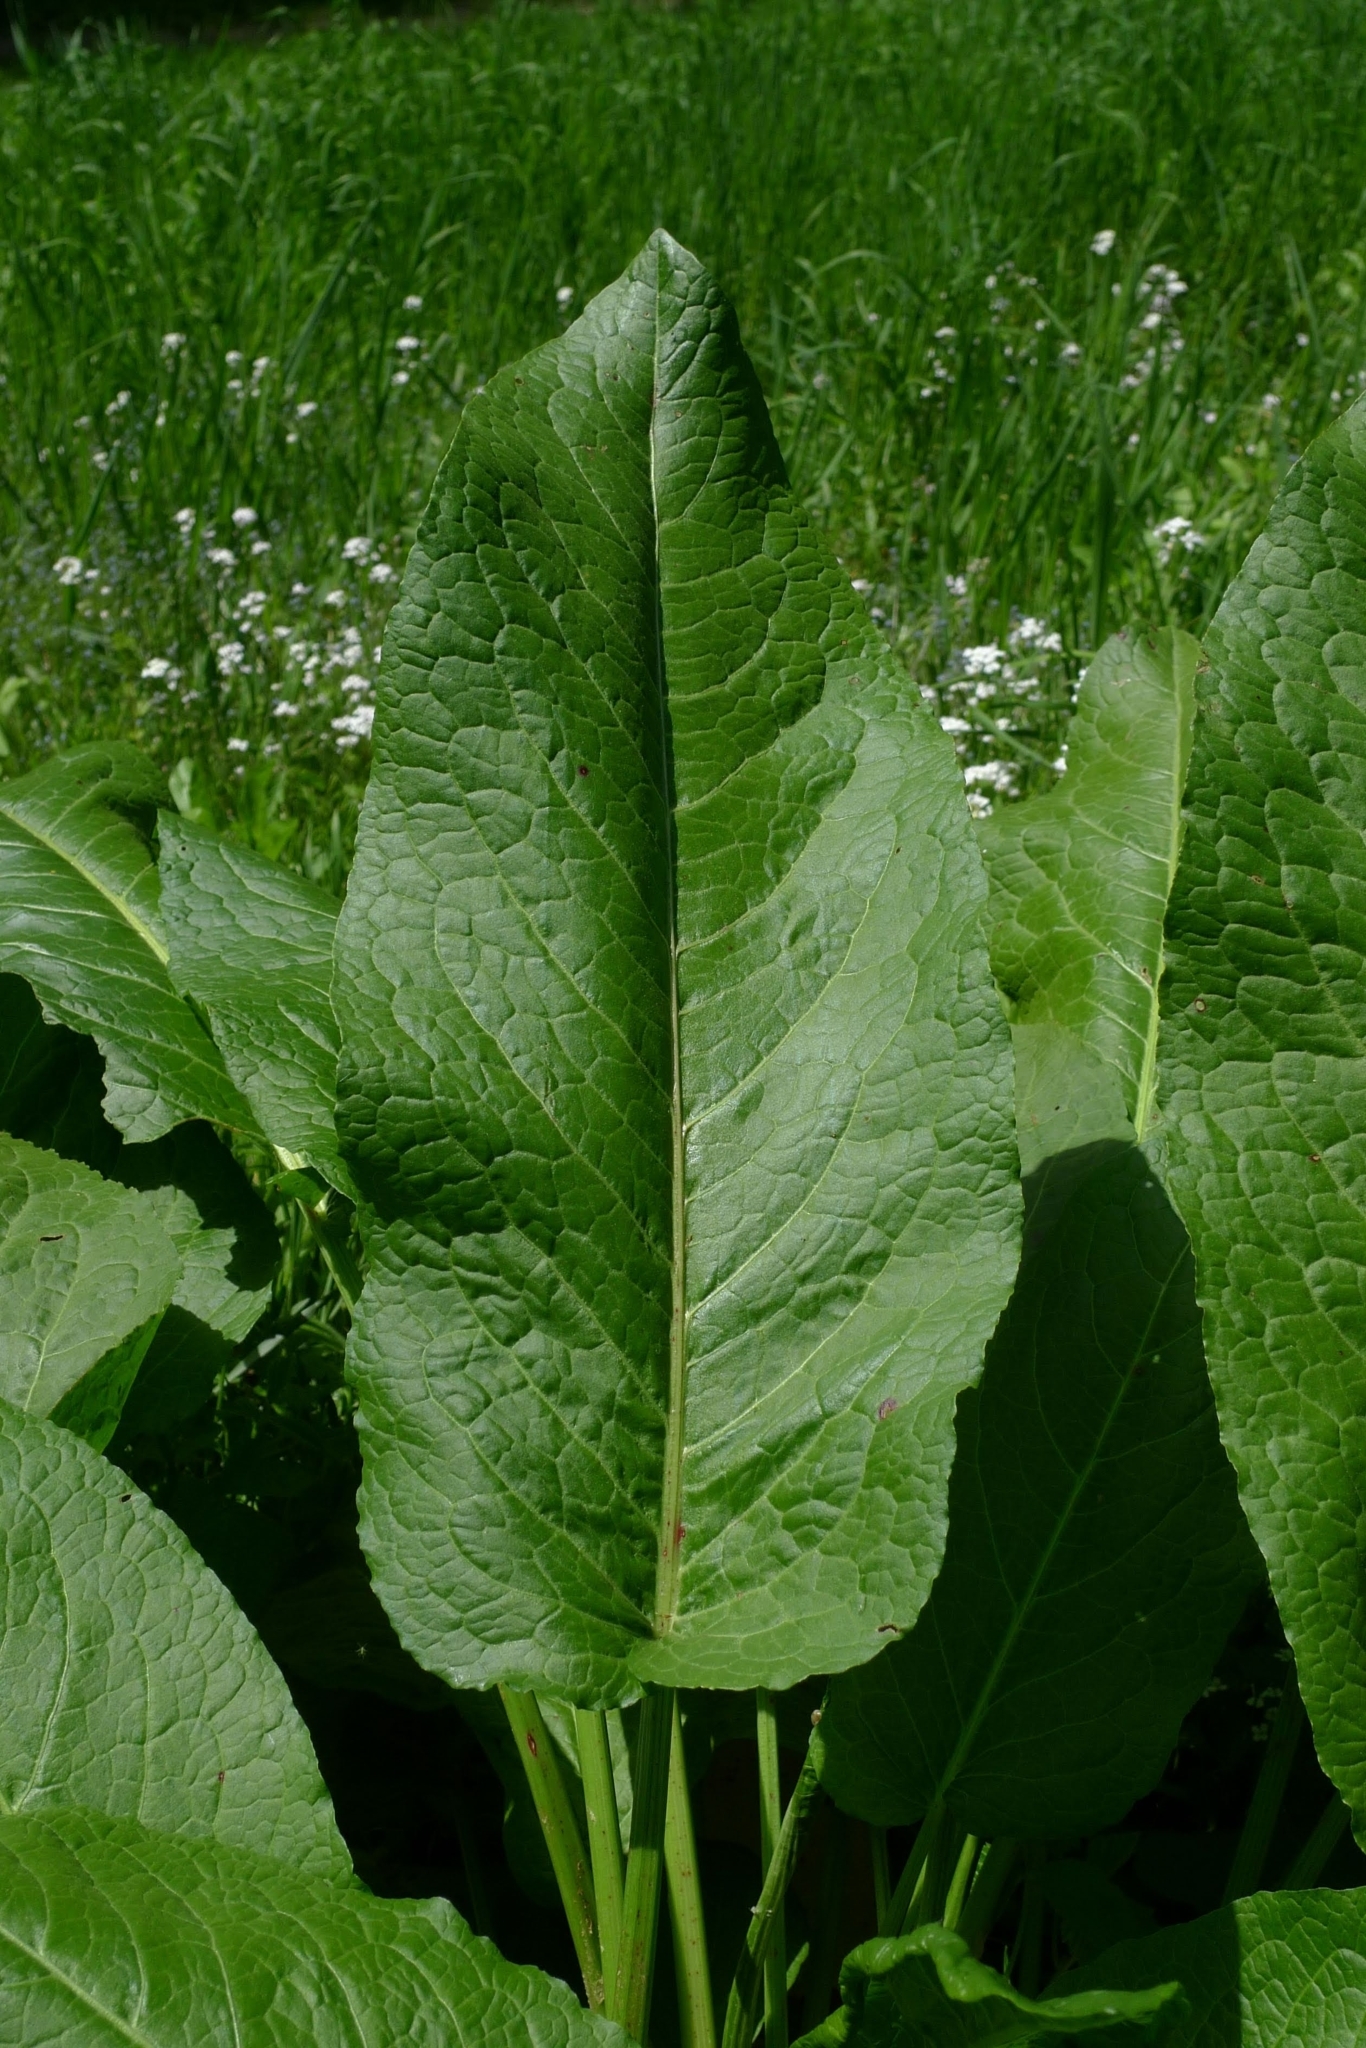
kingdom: Plantae
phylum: Tracheophyta
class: Magnoliopsida
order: Caryophyllales
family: Polygonaceae
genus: Rumex
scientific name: Rumex obtusifolius
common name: Bitter dock
